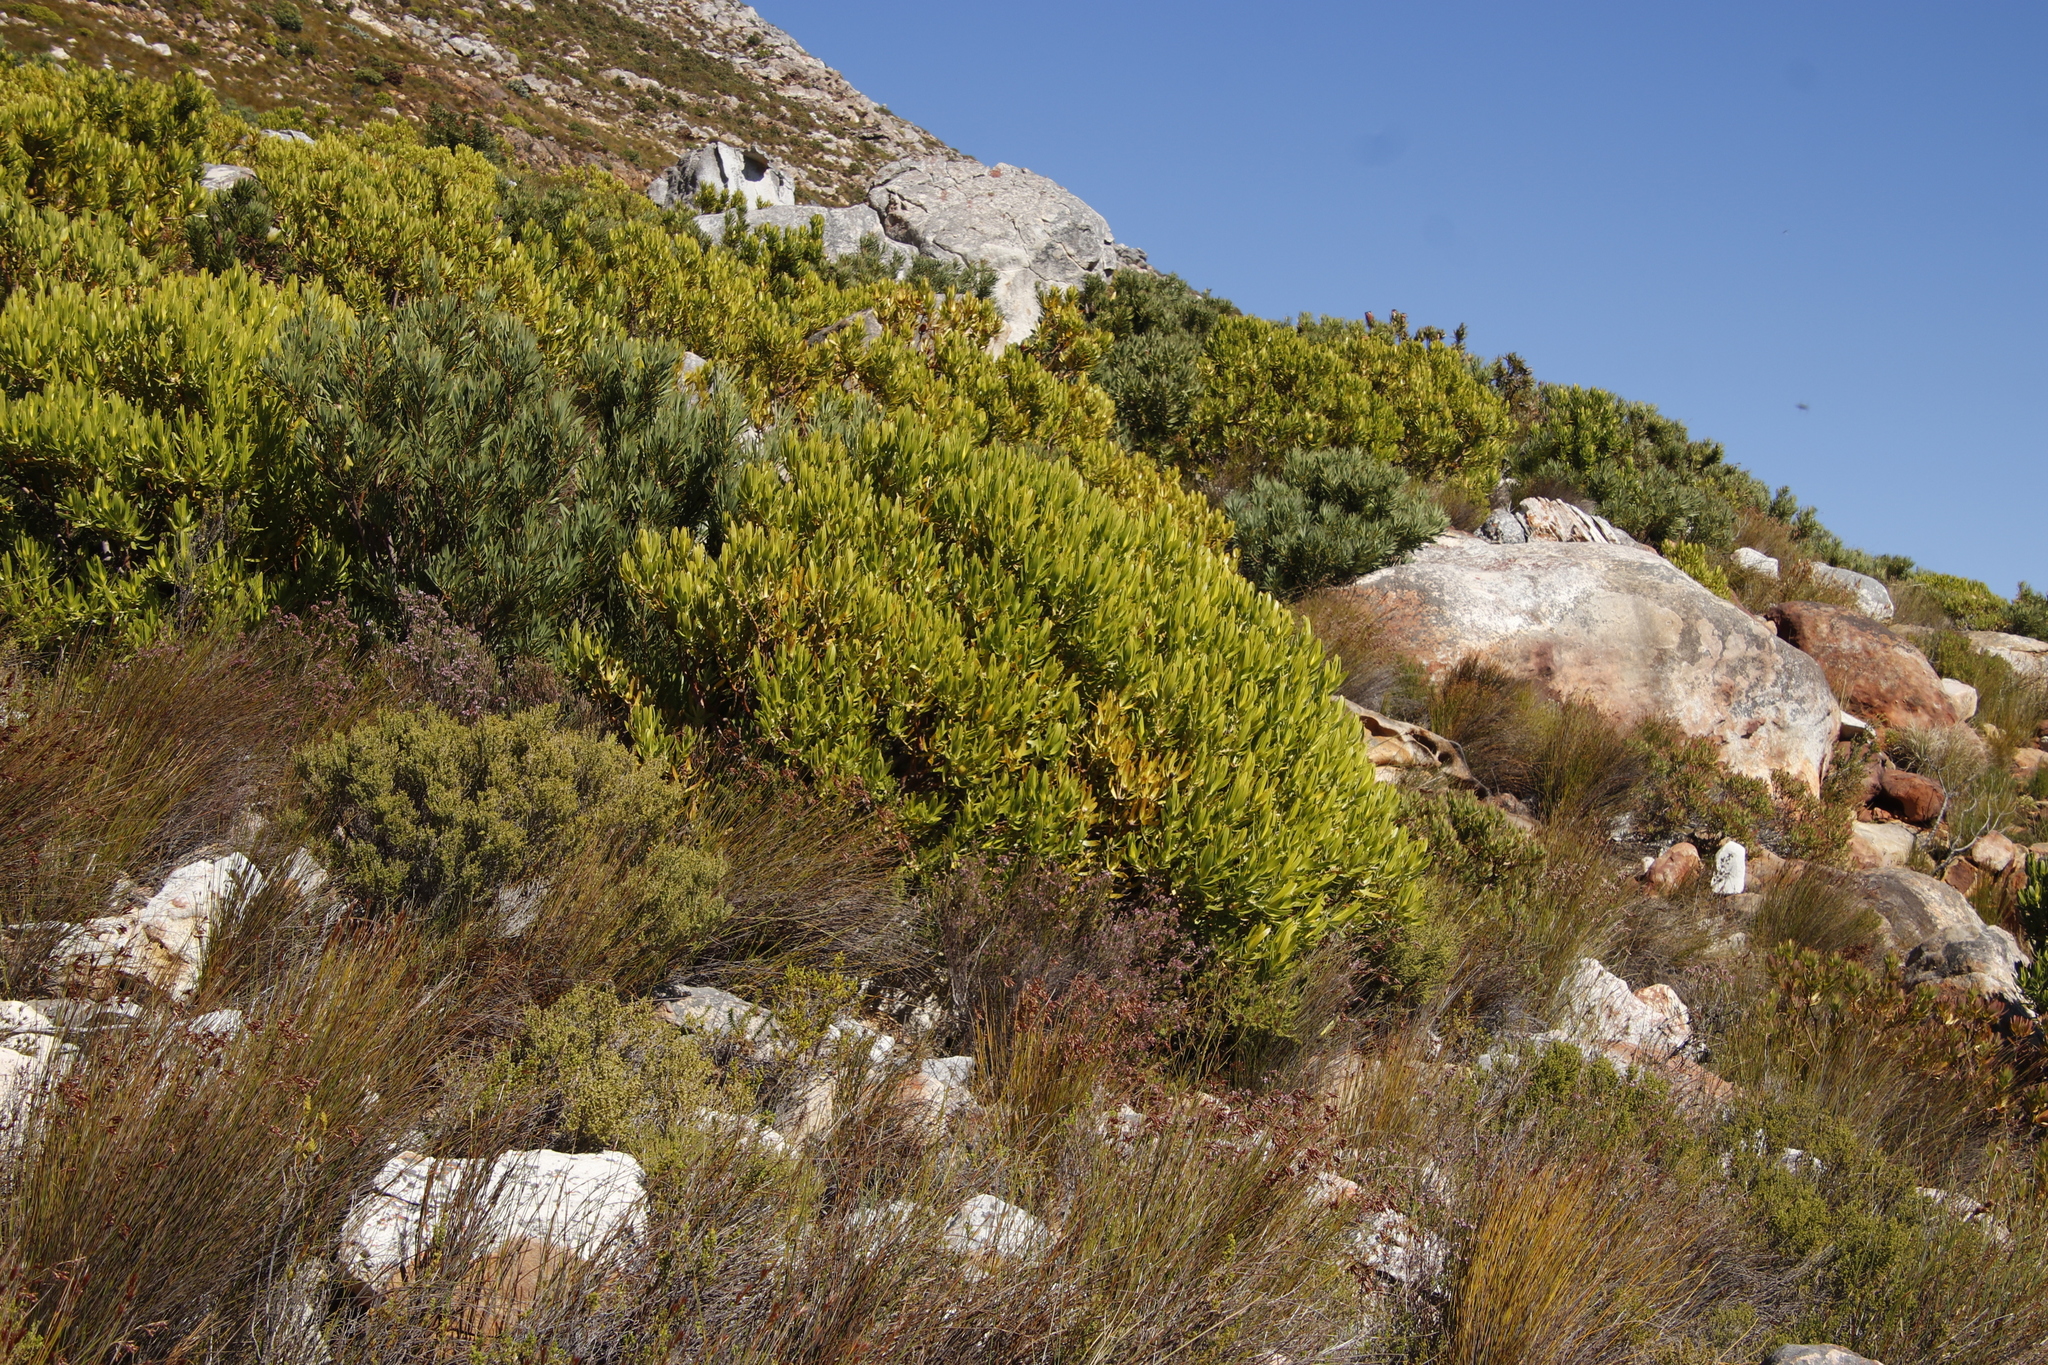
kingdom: Plantae
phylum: Tracheophyta
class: Magnoliopsida
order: Proteales
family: Proteaceae
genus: Leucadendron
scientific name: Leucadendron laureolum
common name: Golden sunshinebush
